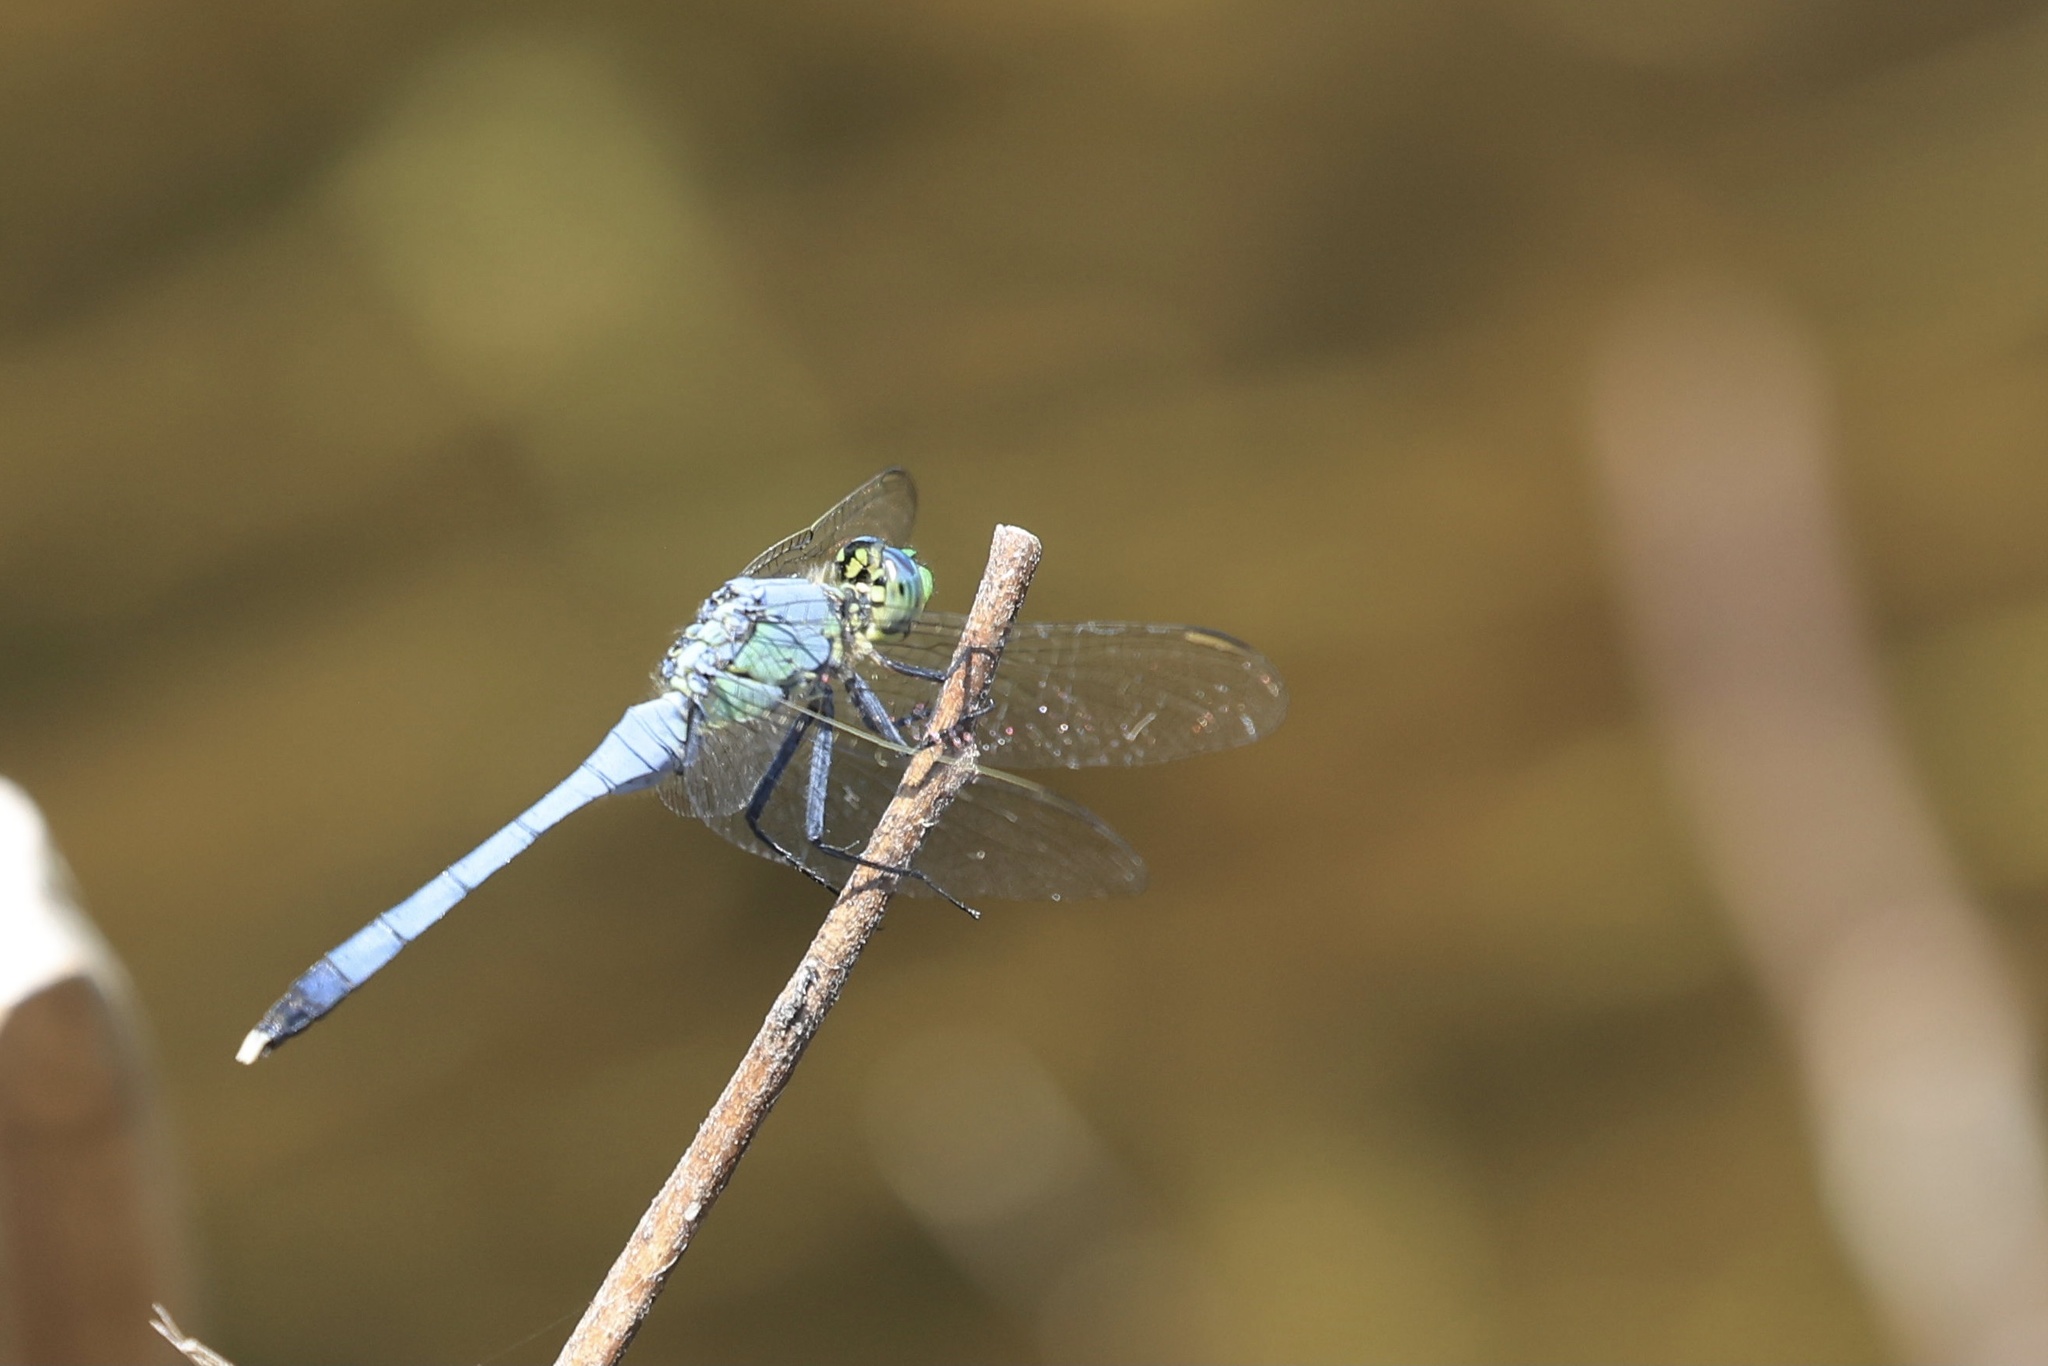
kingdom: Animalia
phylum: Arthropoda
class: Insecta
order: Odonata
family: Libellulidae
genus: Erythemis
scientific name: Erythemis simplicicollis
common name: Eastern pondhawk
